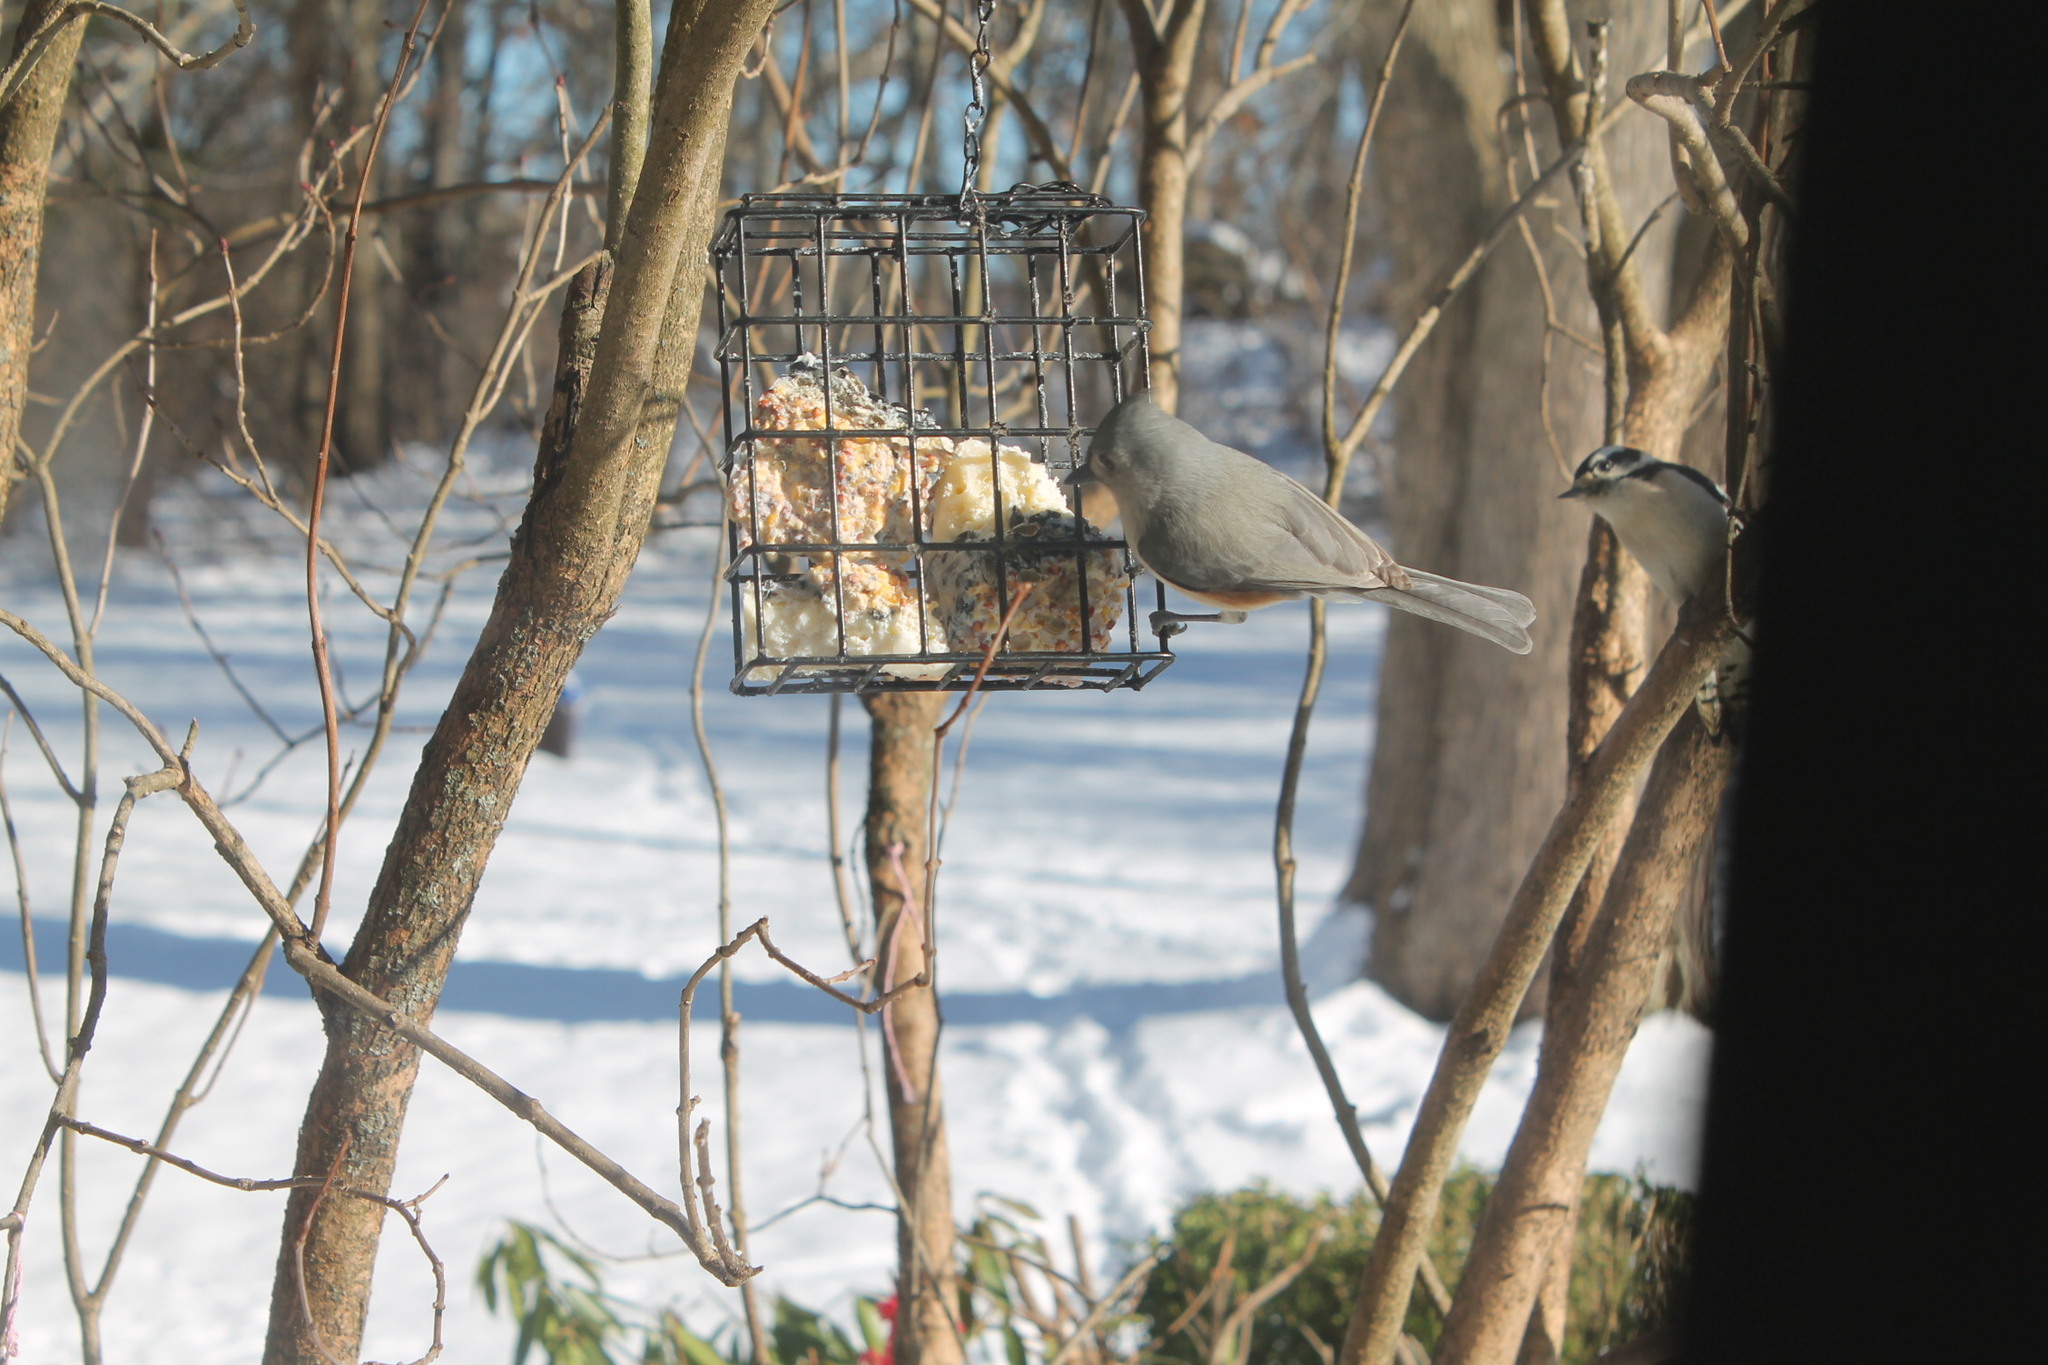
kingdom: Animalia
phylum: Chordata
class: Aves
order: Passeriformes
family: Paridae
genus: Baeolophus
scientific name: Baeolophus bicolor
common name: Tufted titmouse
